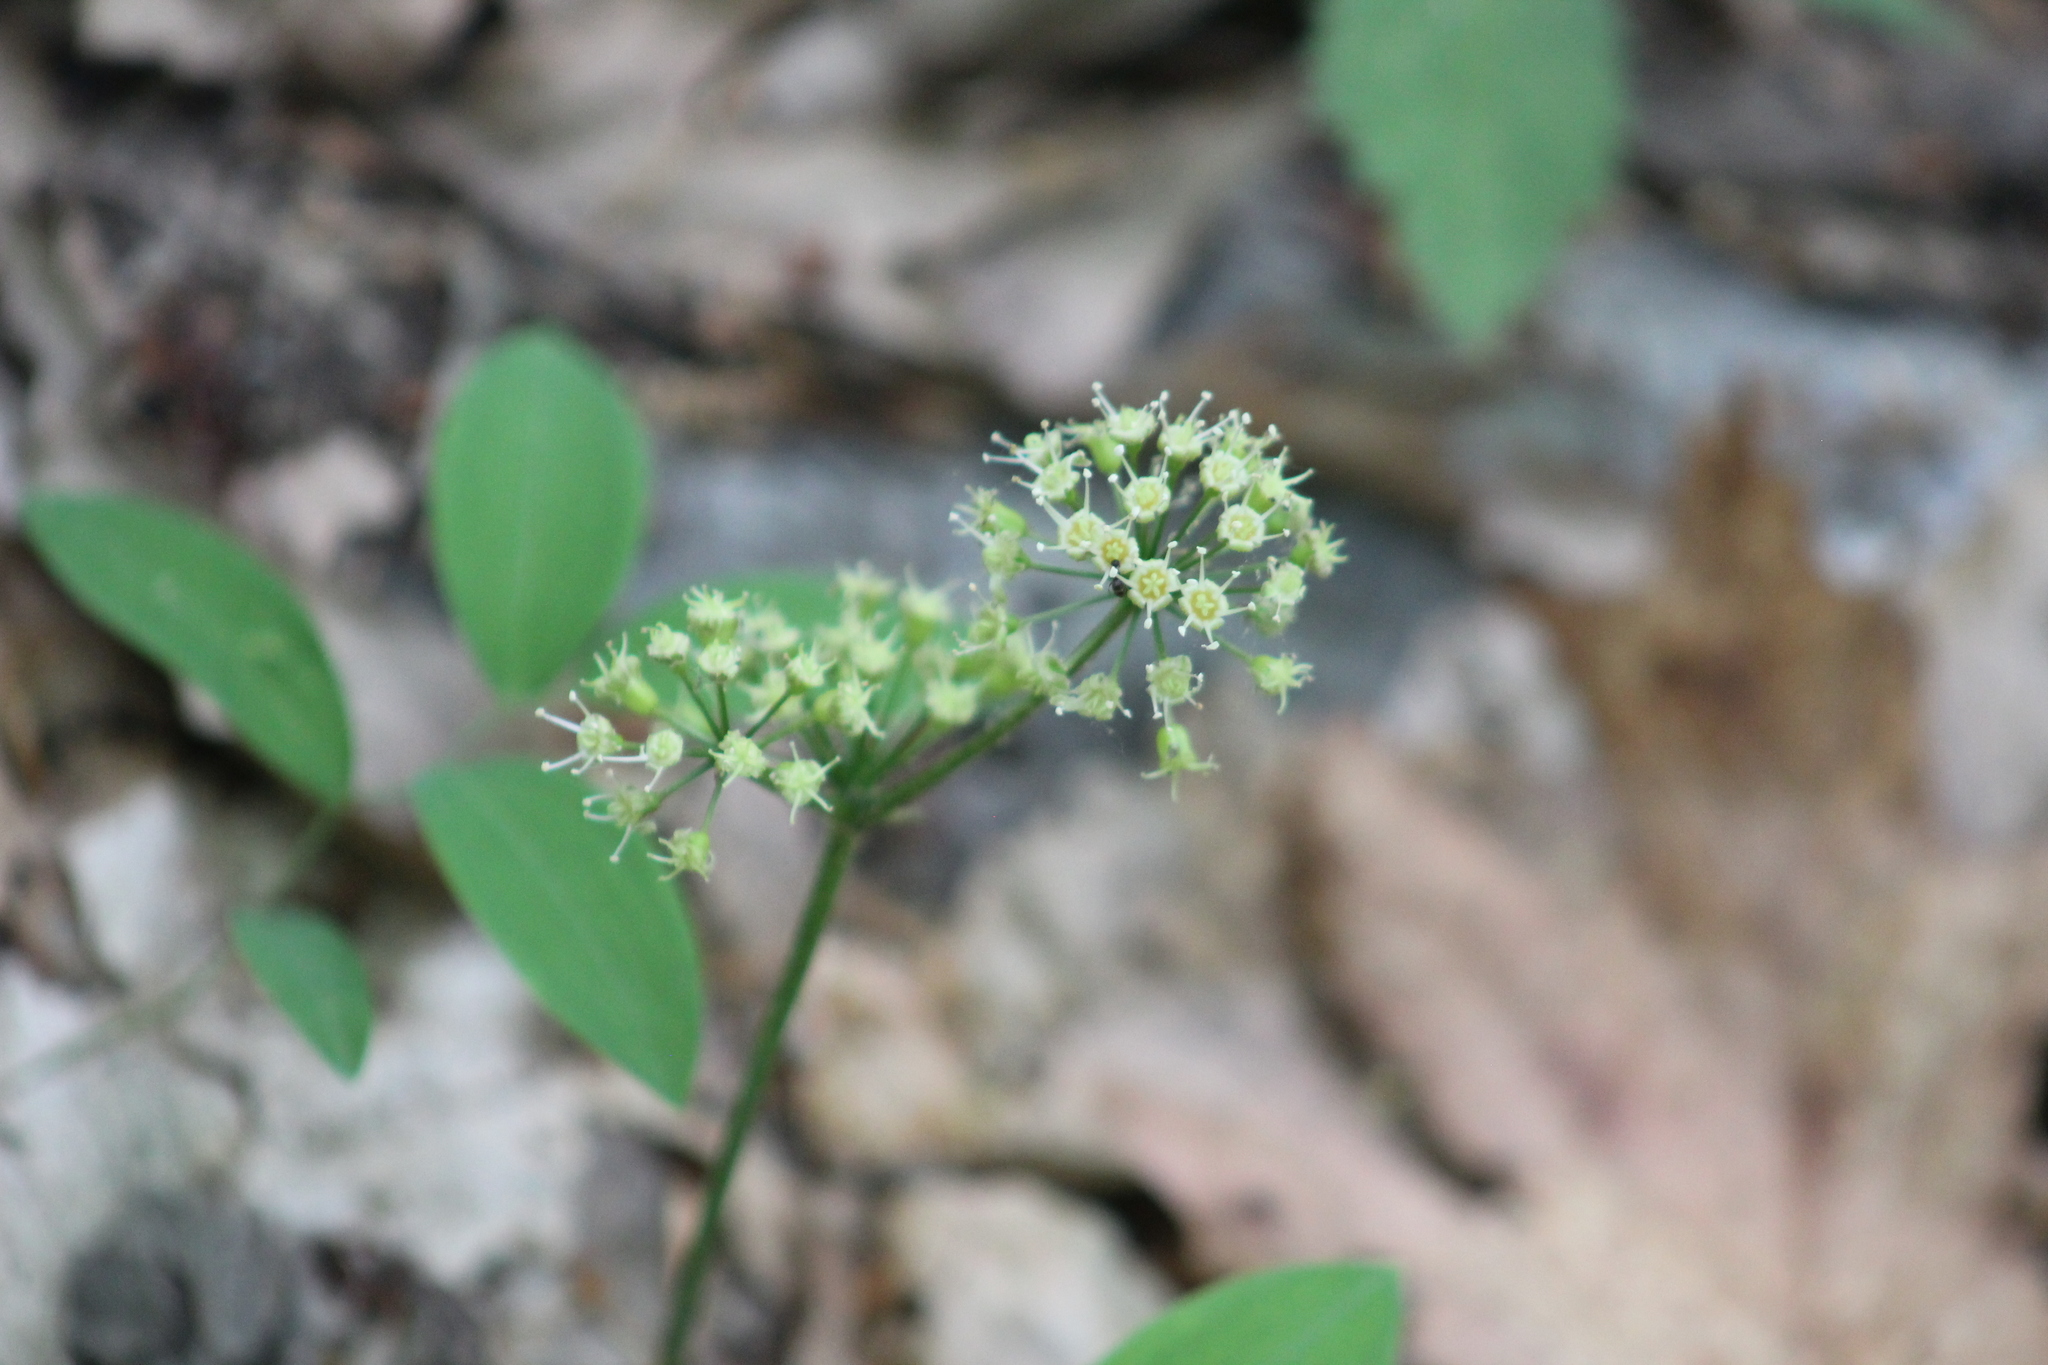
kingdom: Plantae
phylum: Tracheophyta
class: Magnoliopsida
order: Apiales
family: Araliaceae
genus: Aralia
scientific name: Aralia nudicaulis
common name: Wild sarsaparilla
